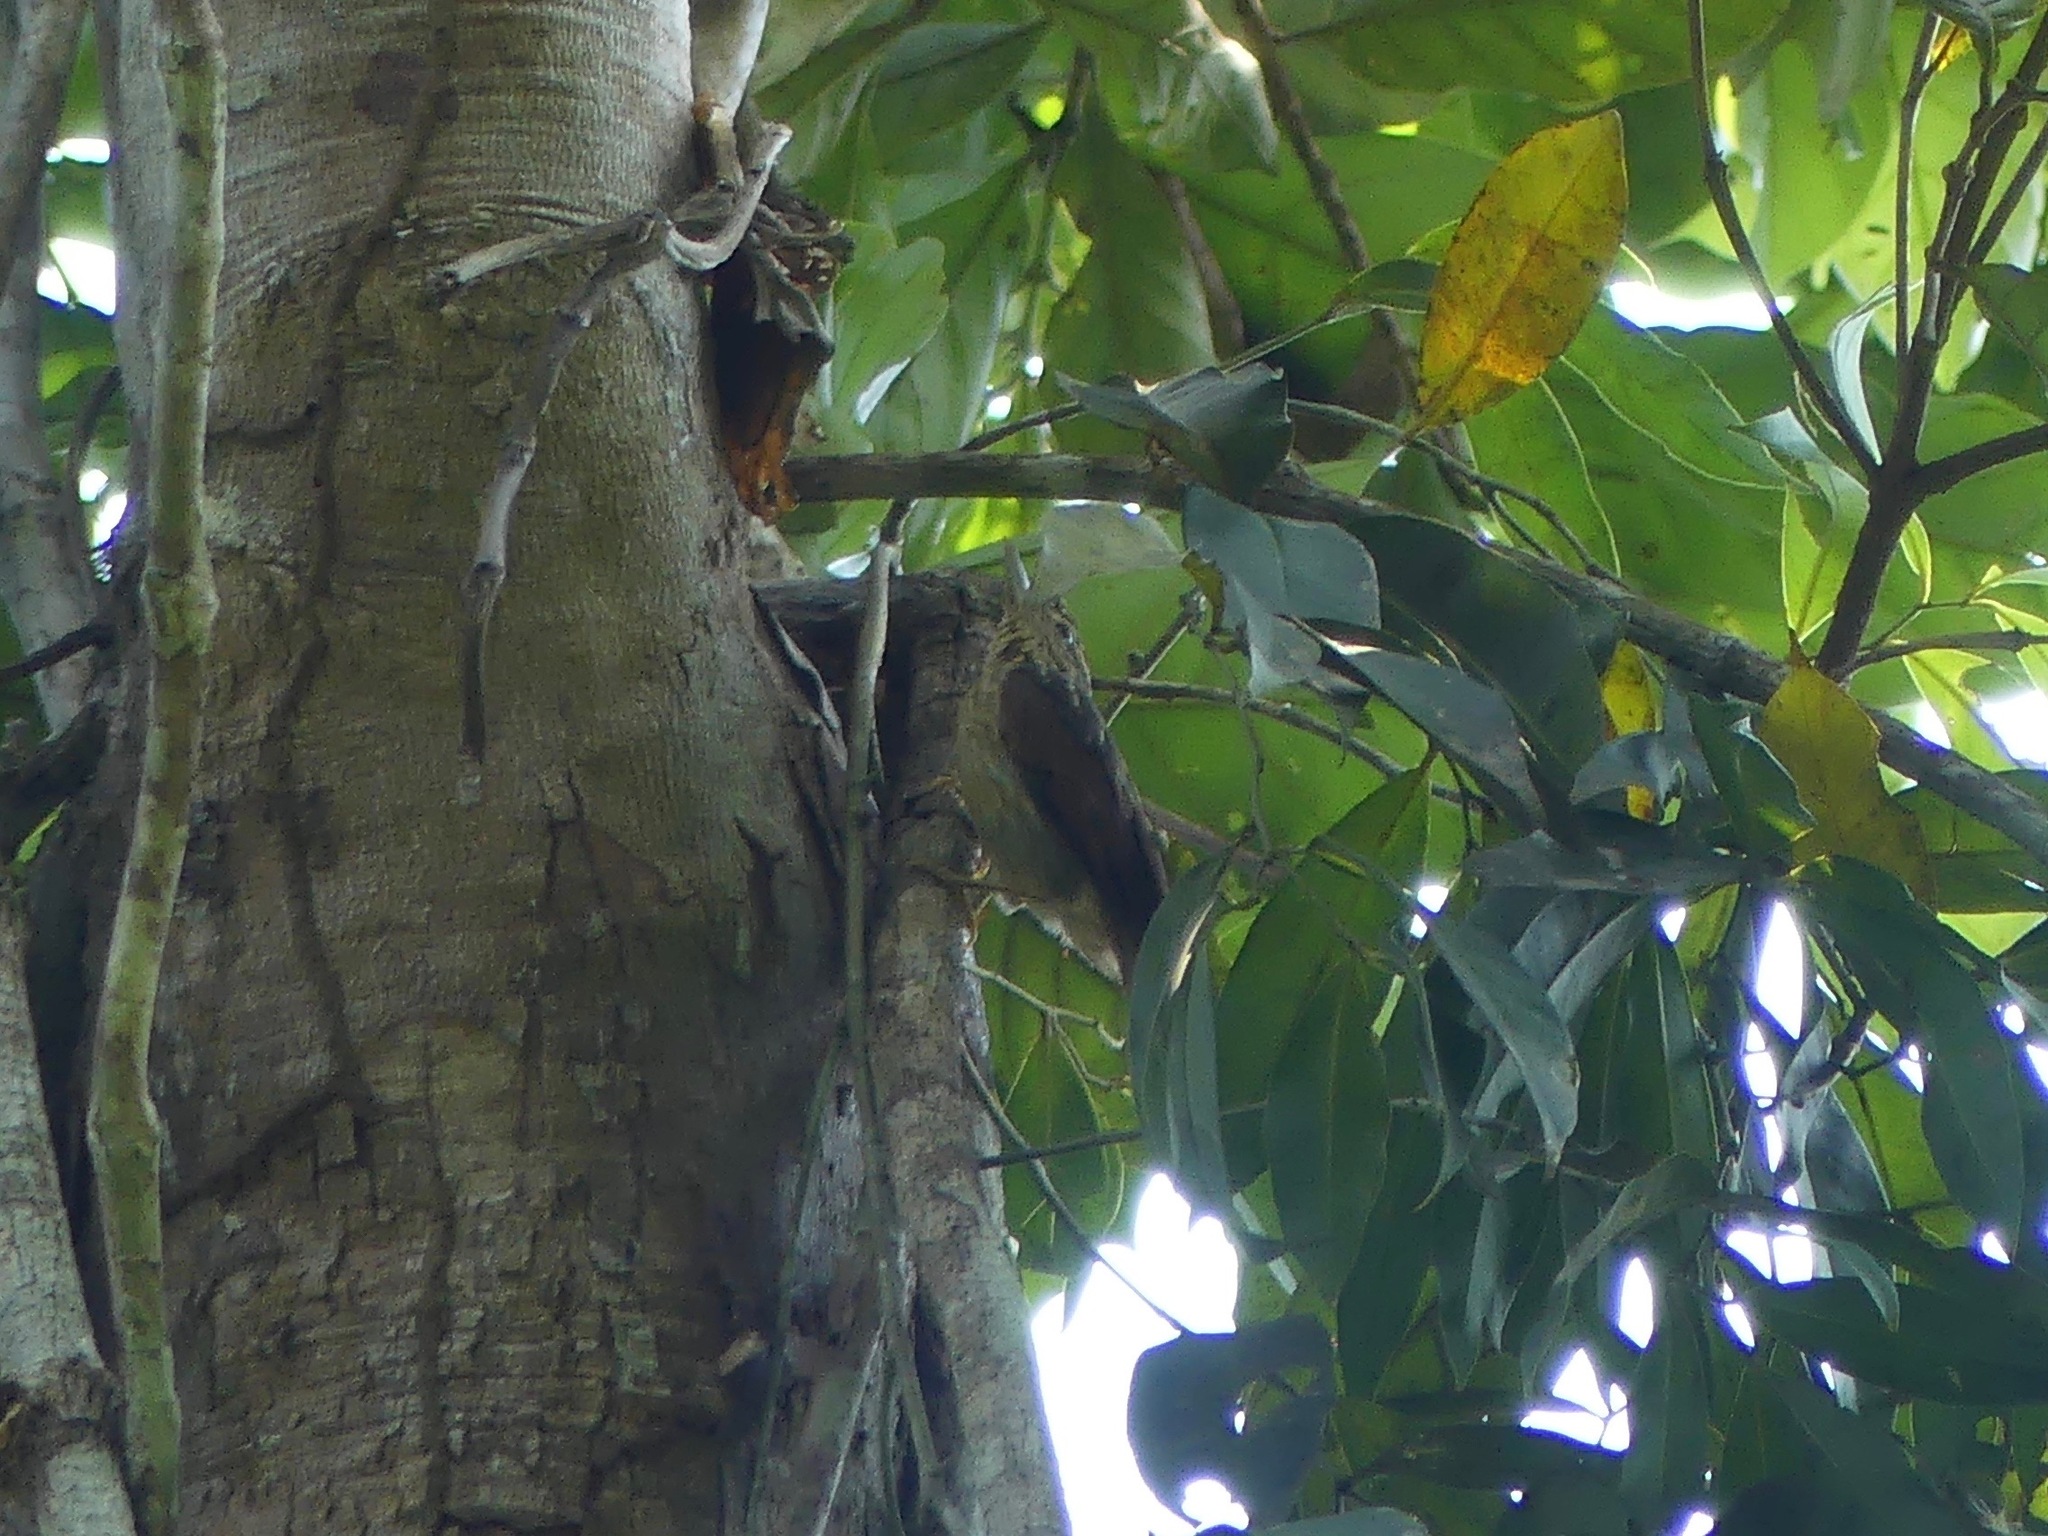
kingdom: Animalia
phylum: Chordata
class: Aves
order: Passeriformes
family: Furnariidae
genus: Ancistrops
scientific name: Ancistrops strigilatus
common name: Chestnut-winged hookbill
